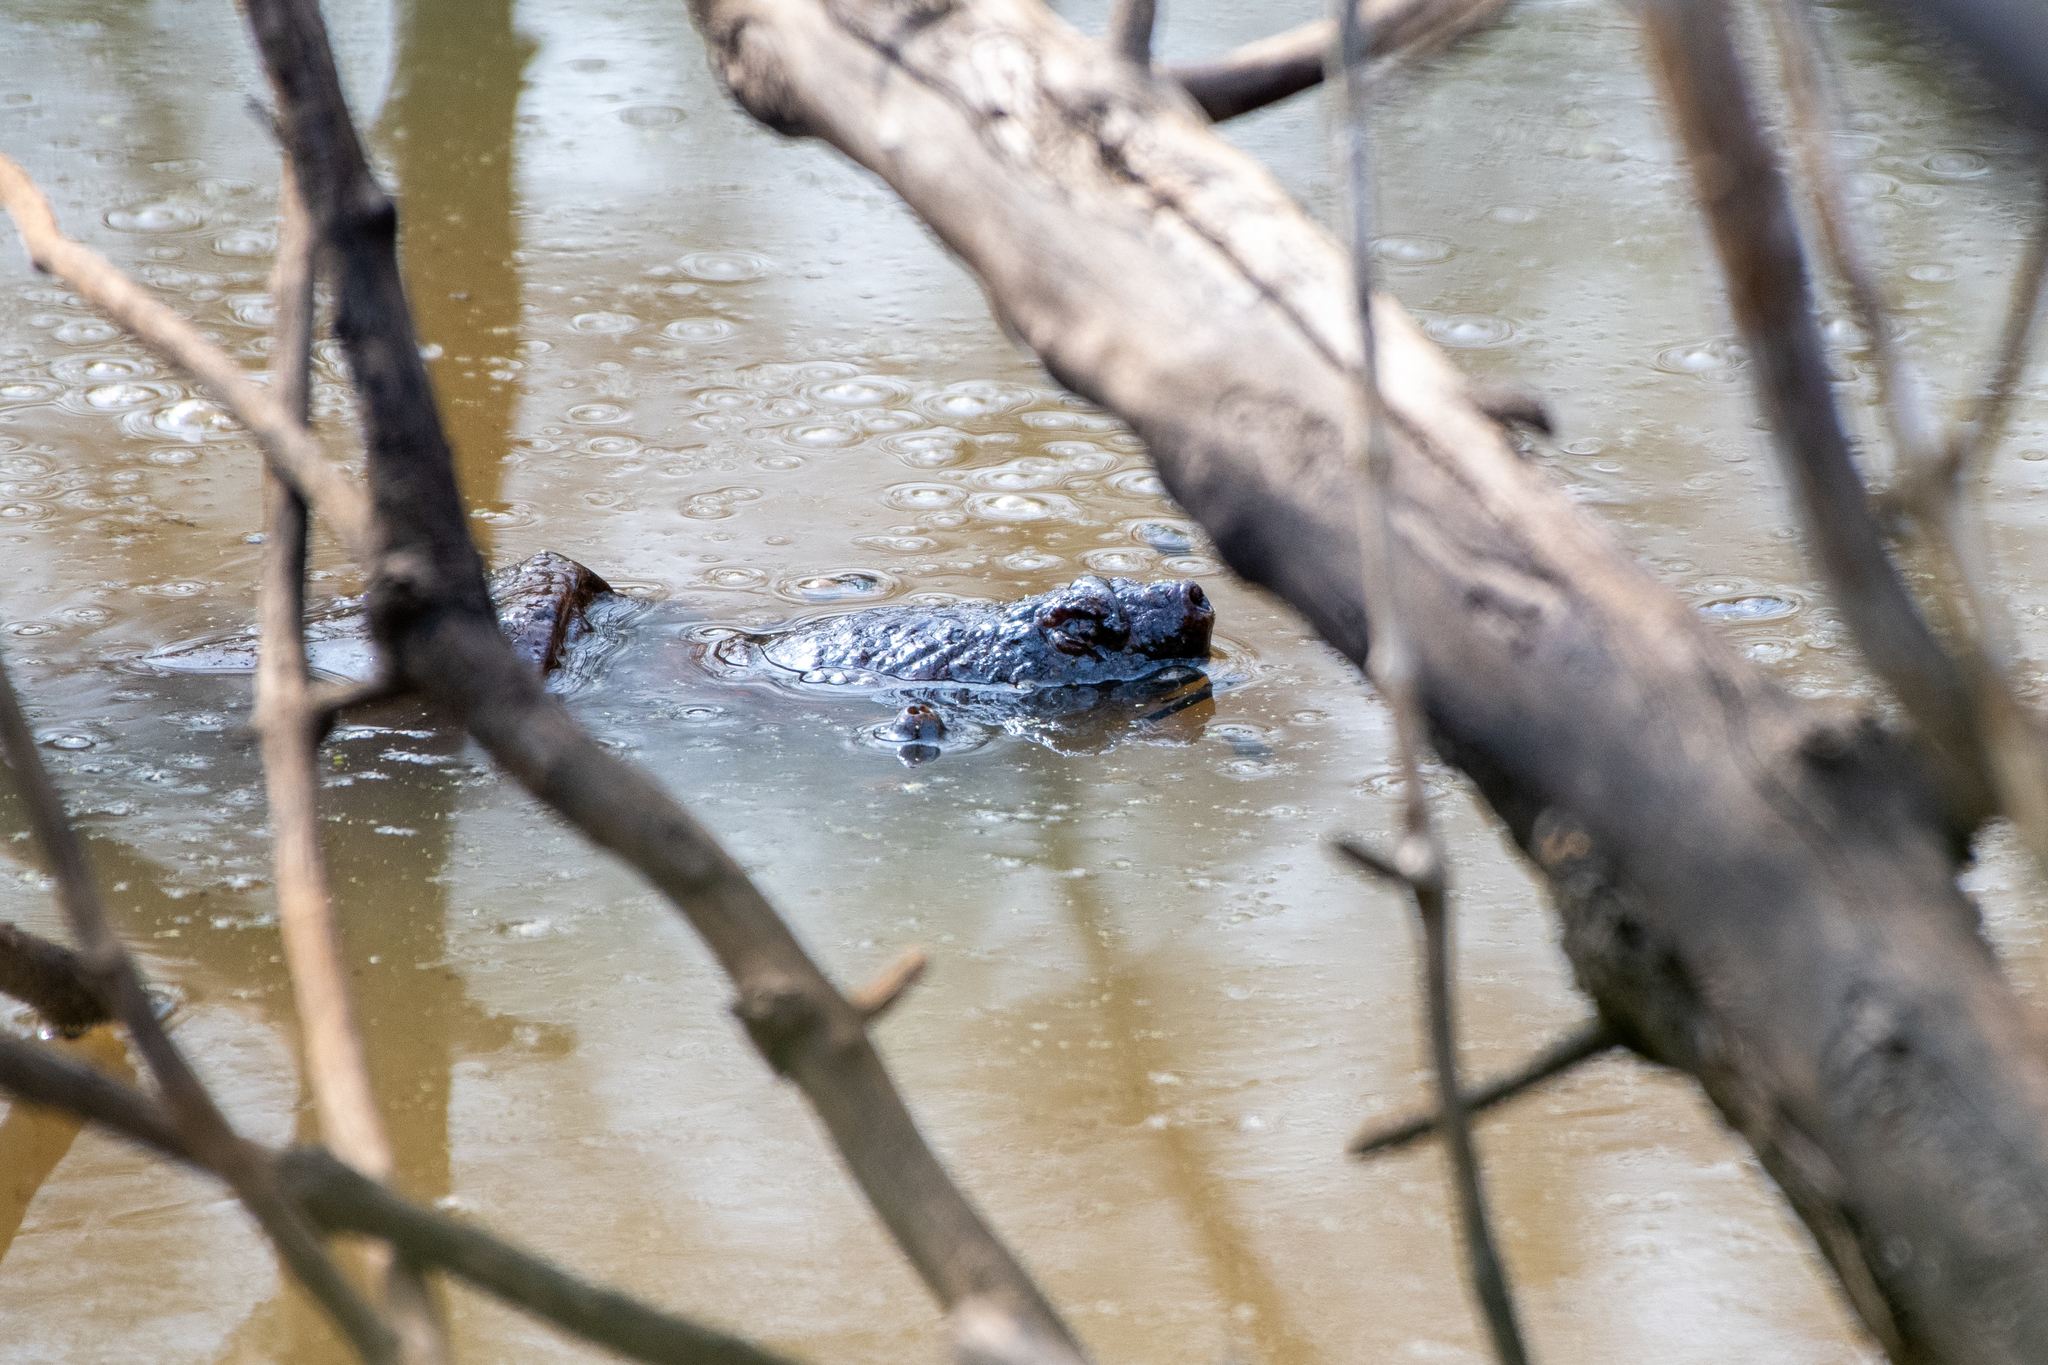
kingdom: Animalia
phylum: Chordata
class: Testudines
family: Chelydridae
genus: Chelydra
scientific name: Chelydra serpentina
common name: Common snapping turtle
